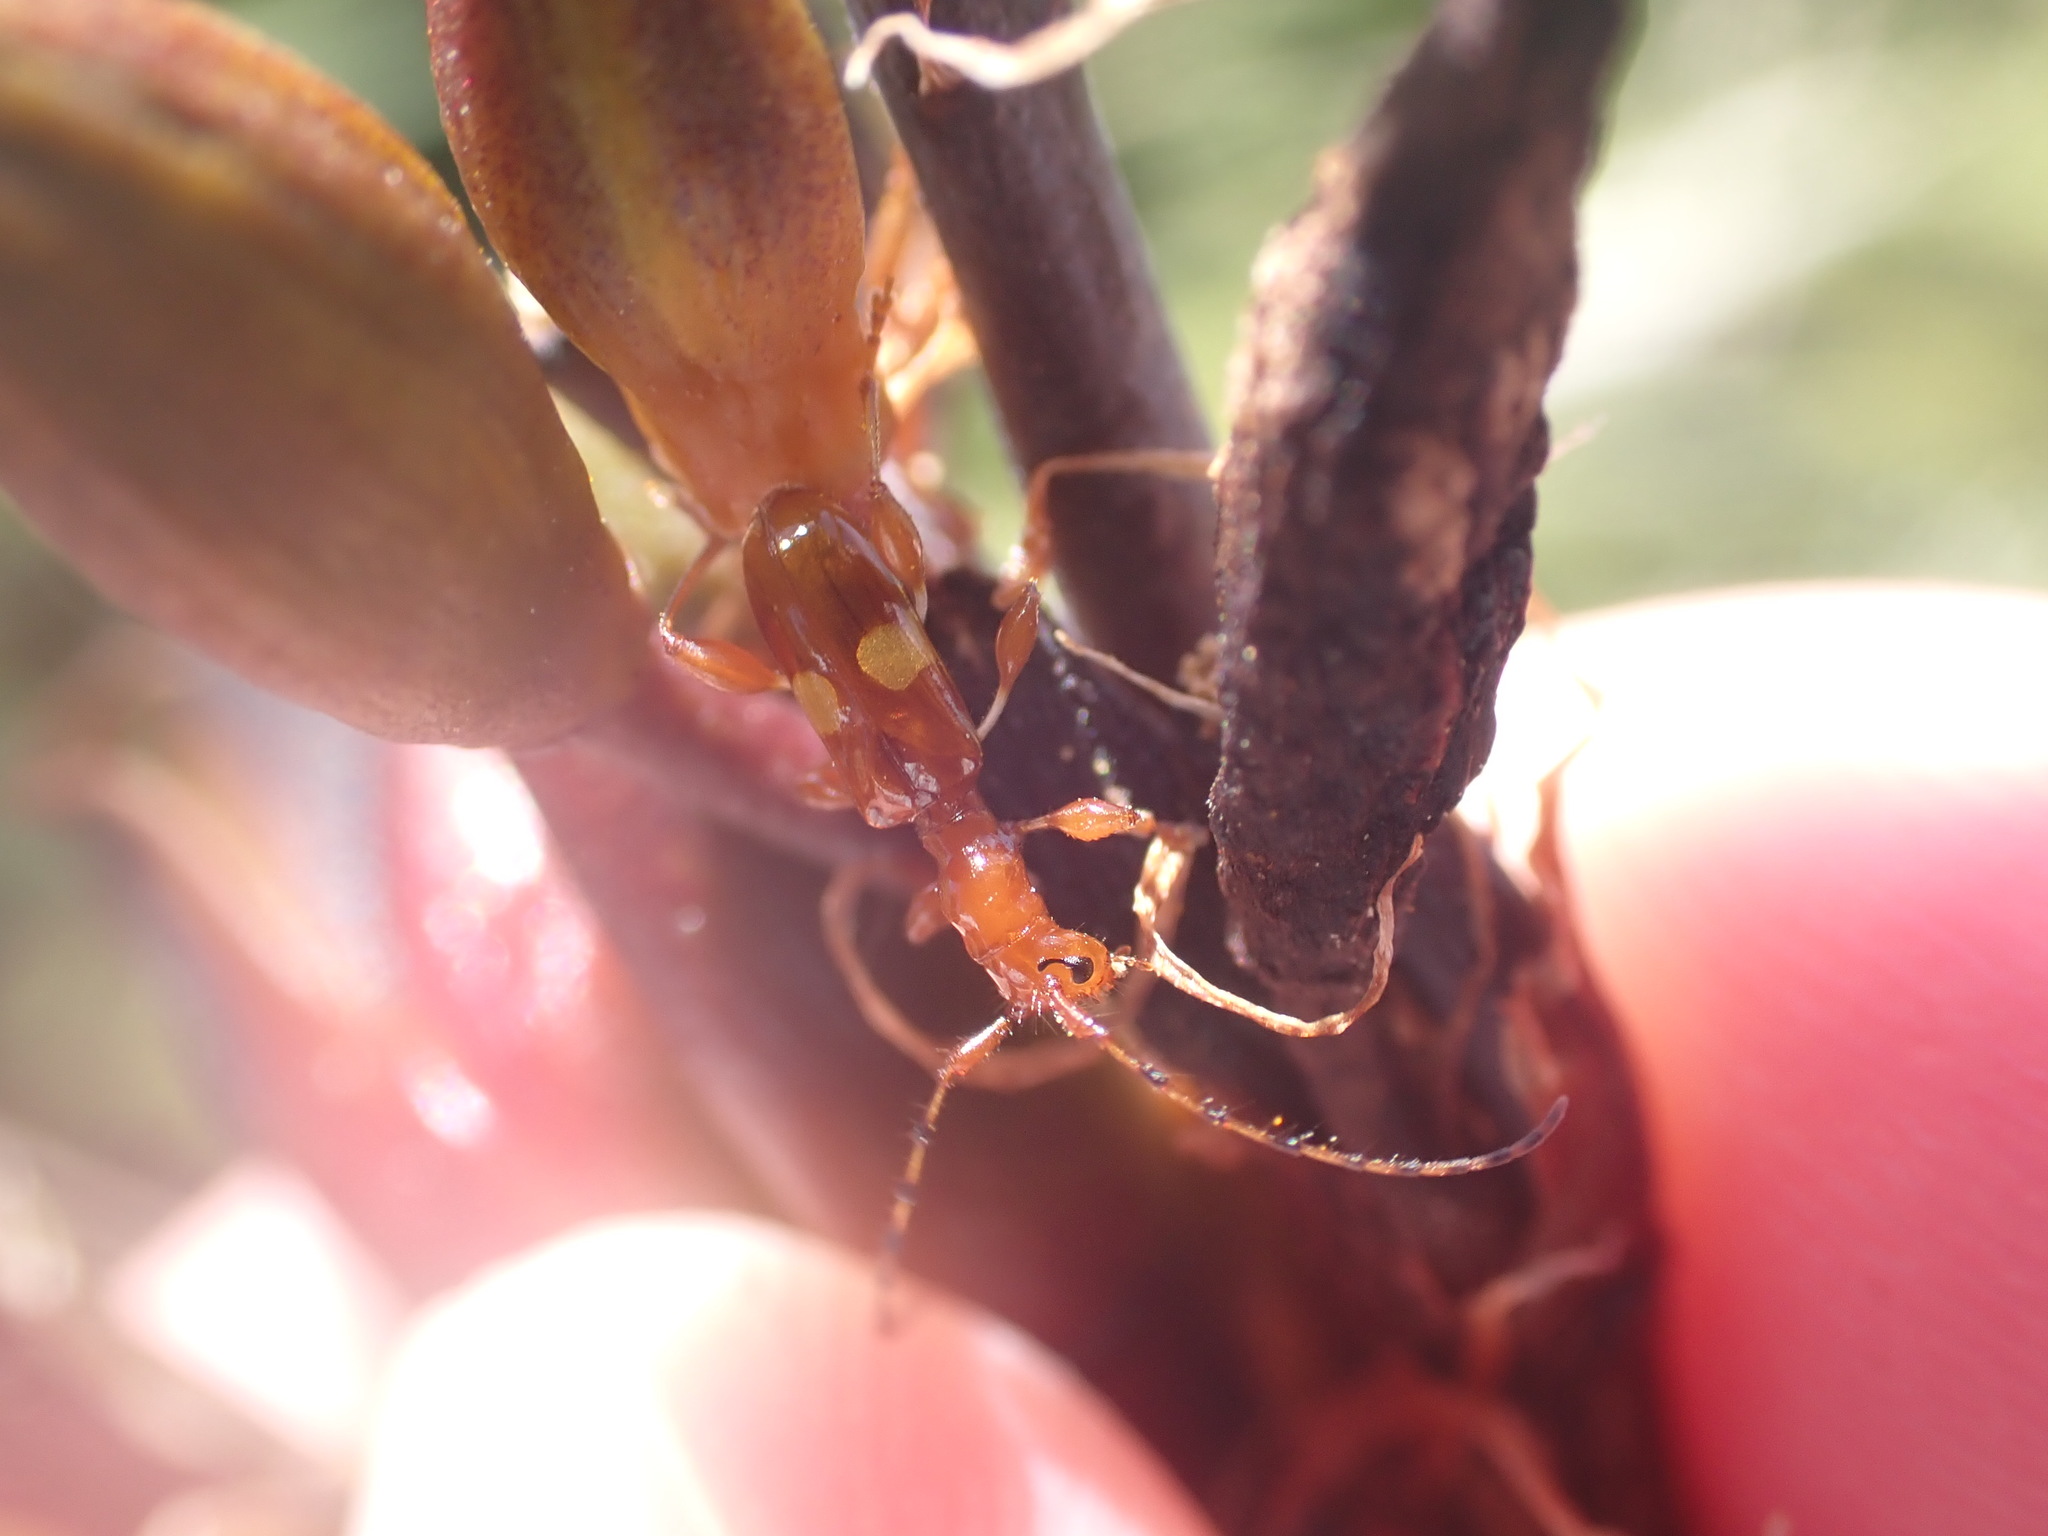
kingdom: Animalia
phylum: Arthropoda
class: Insecta
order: Coleoptera
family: Cerambycidae
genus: Zorion
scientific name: Zorion guttigerum
